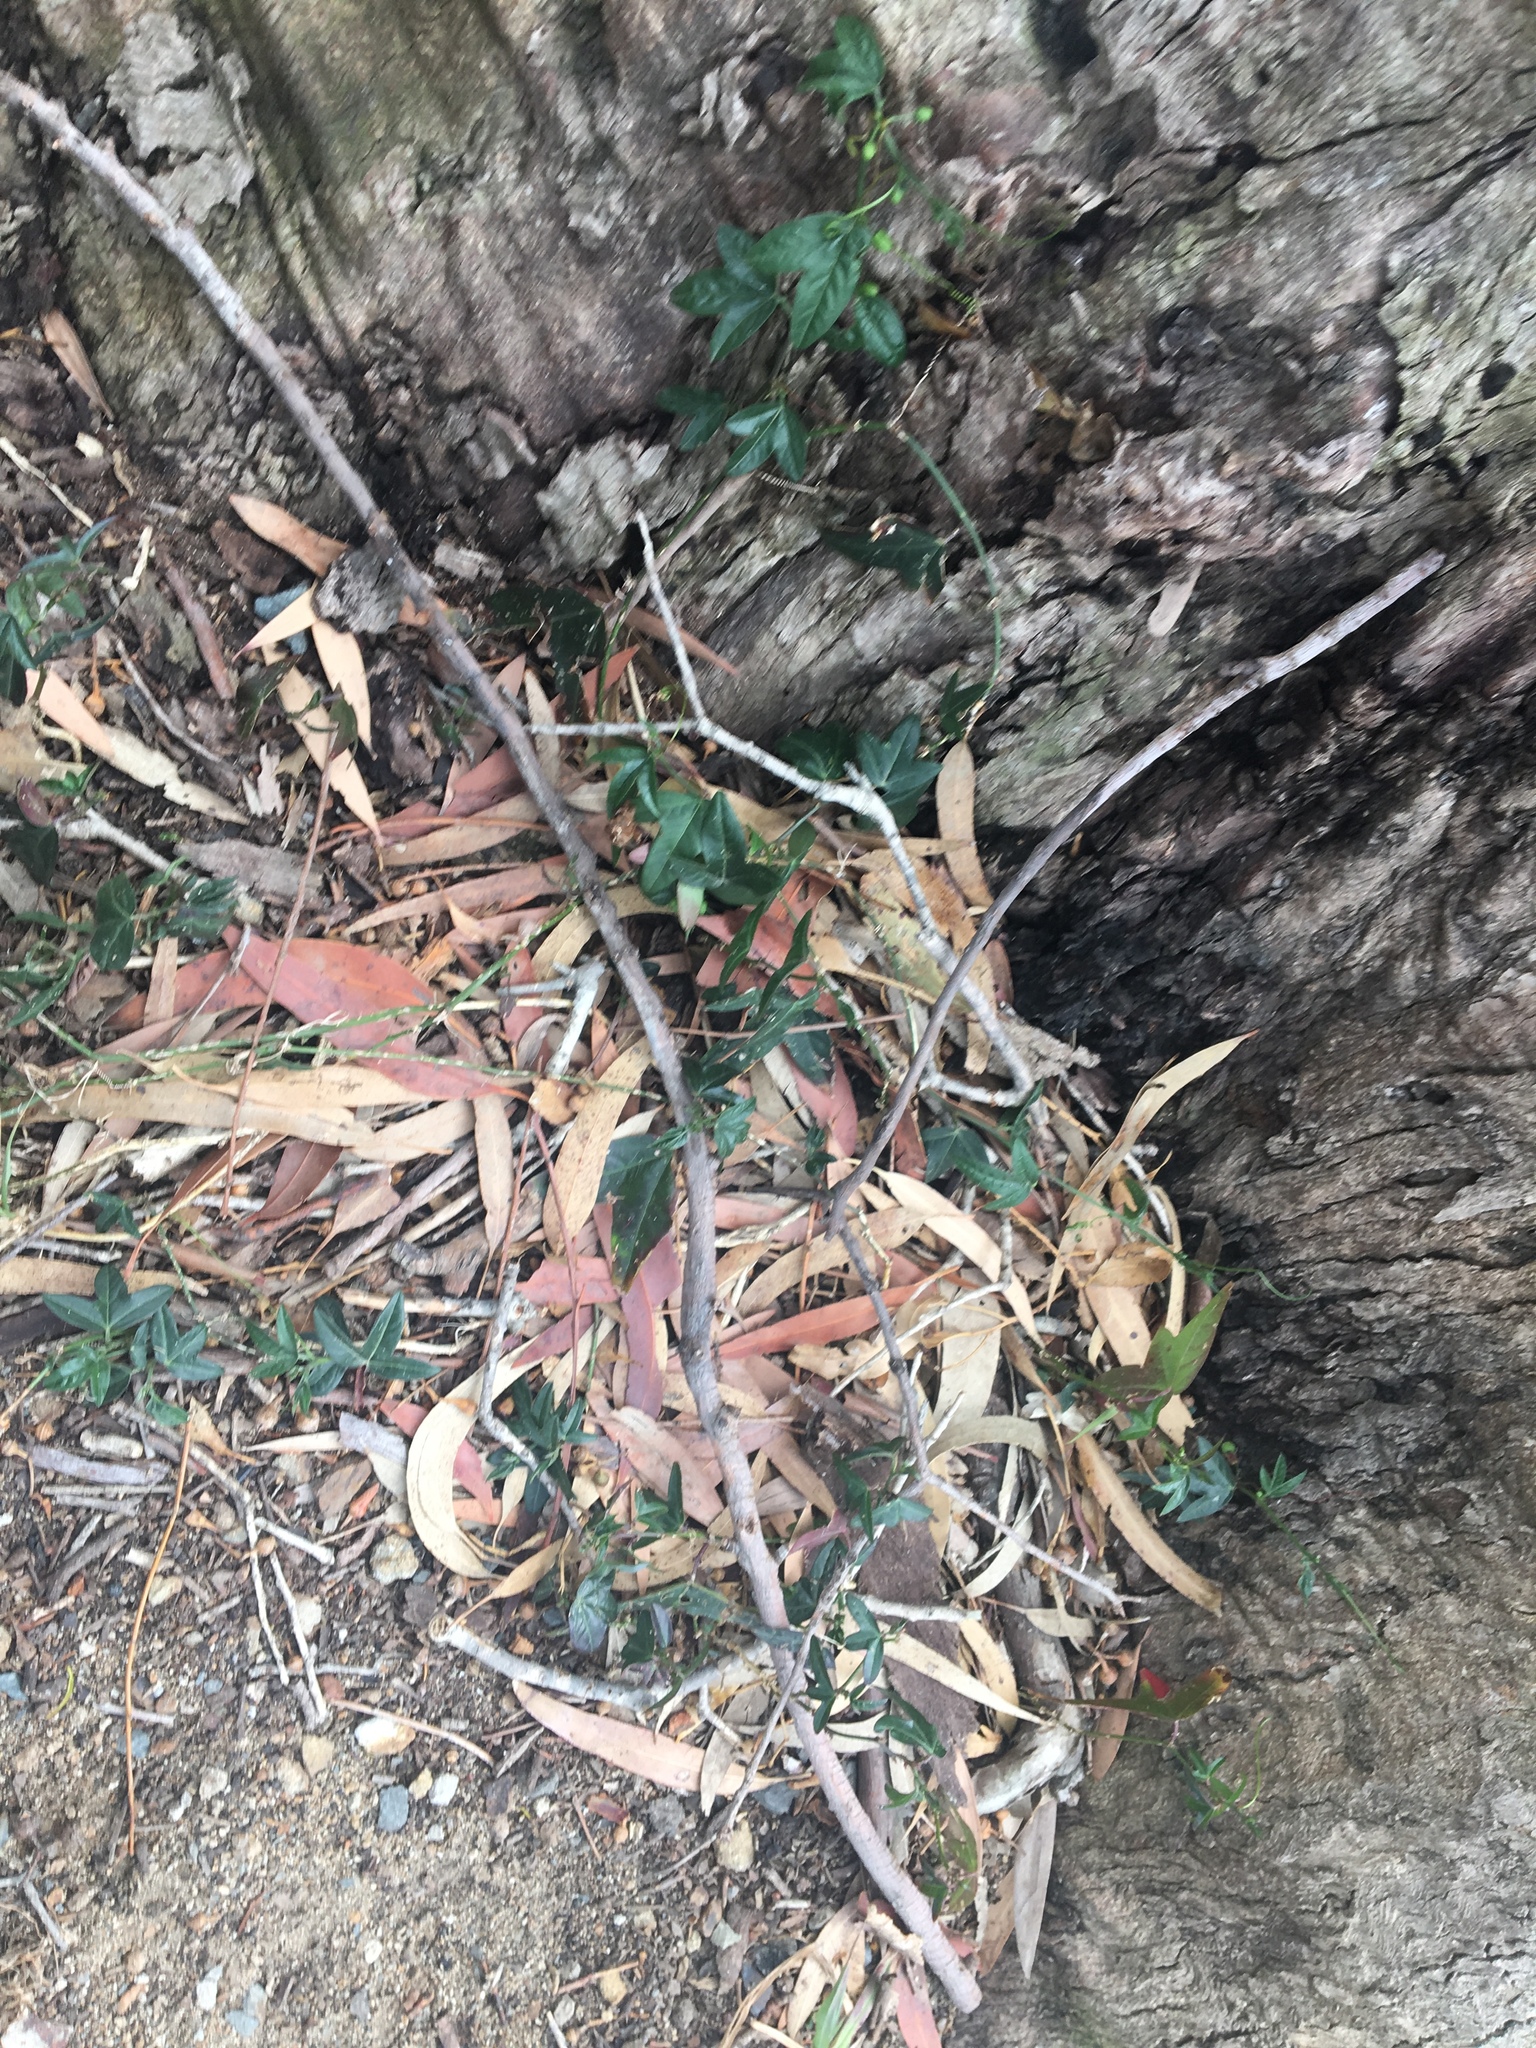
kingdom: Plantae
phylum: Tracheophyta
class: Magnoliopsida
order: Malpighiales
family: Passifloraceae
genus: Passiflora
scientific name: Passiflora pallida
